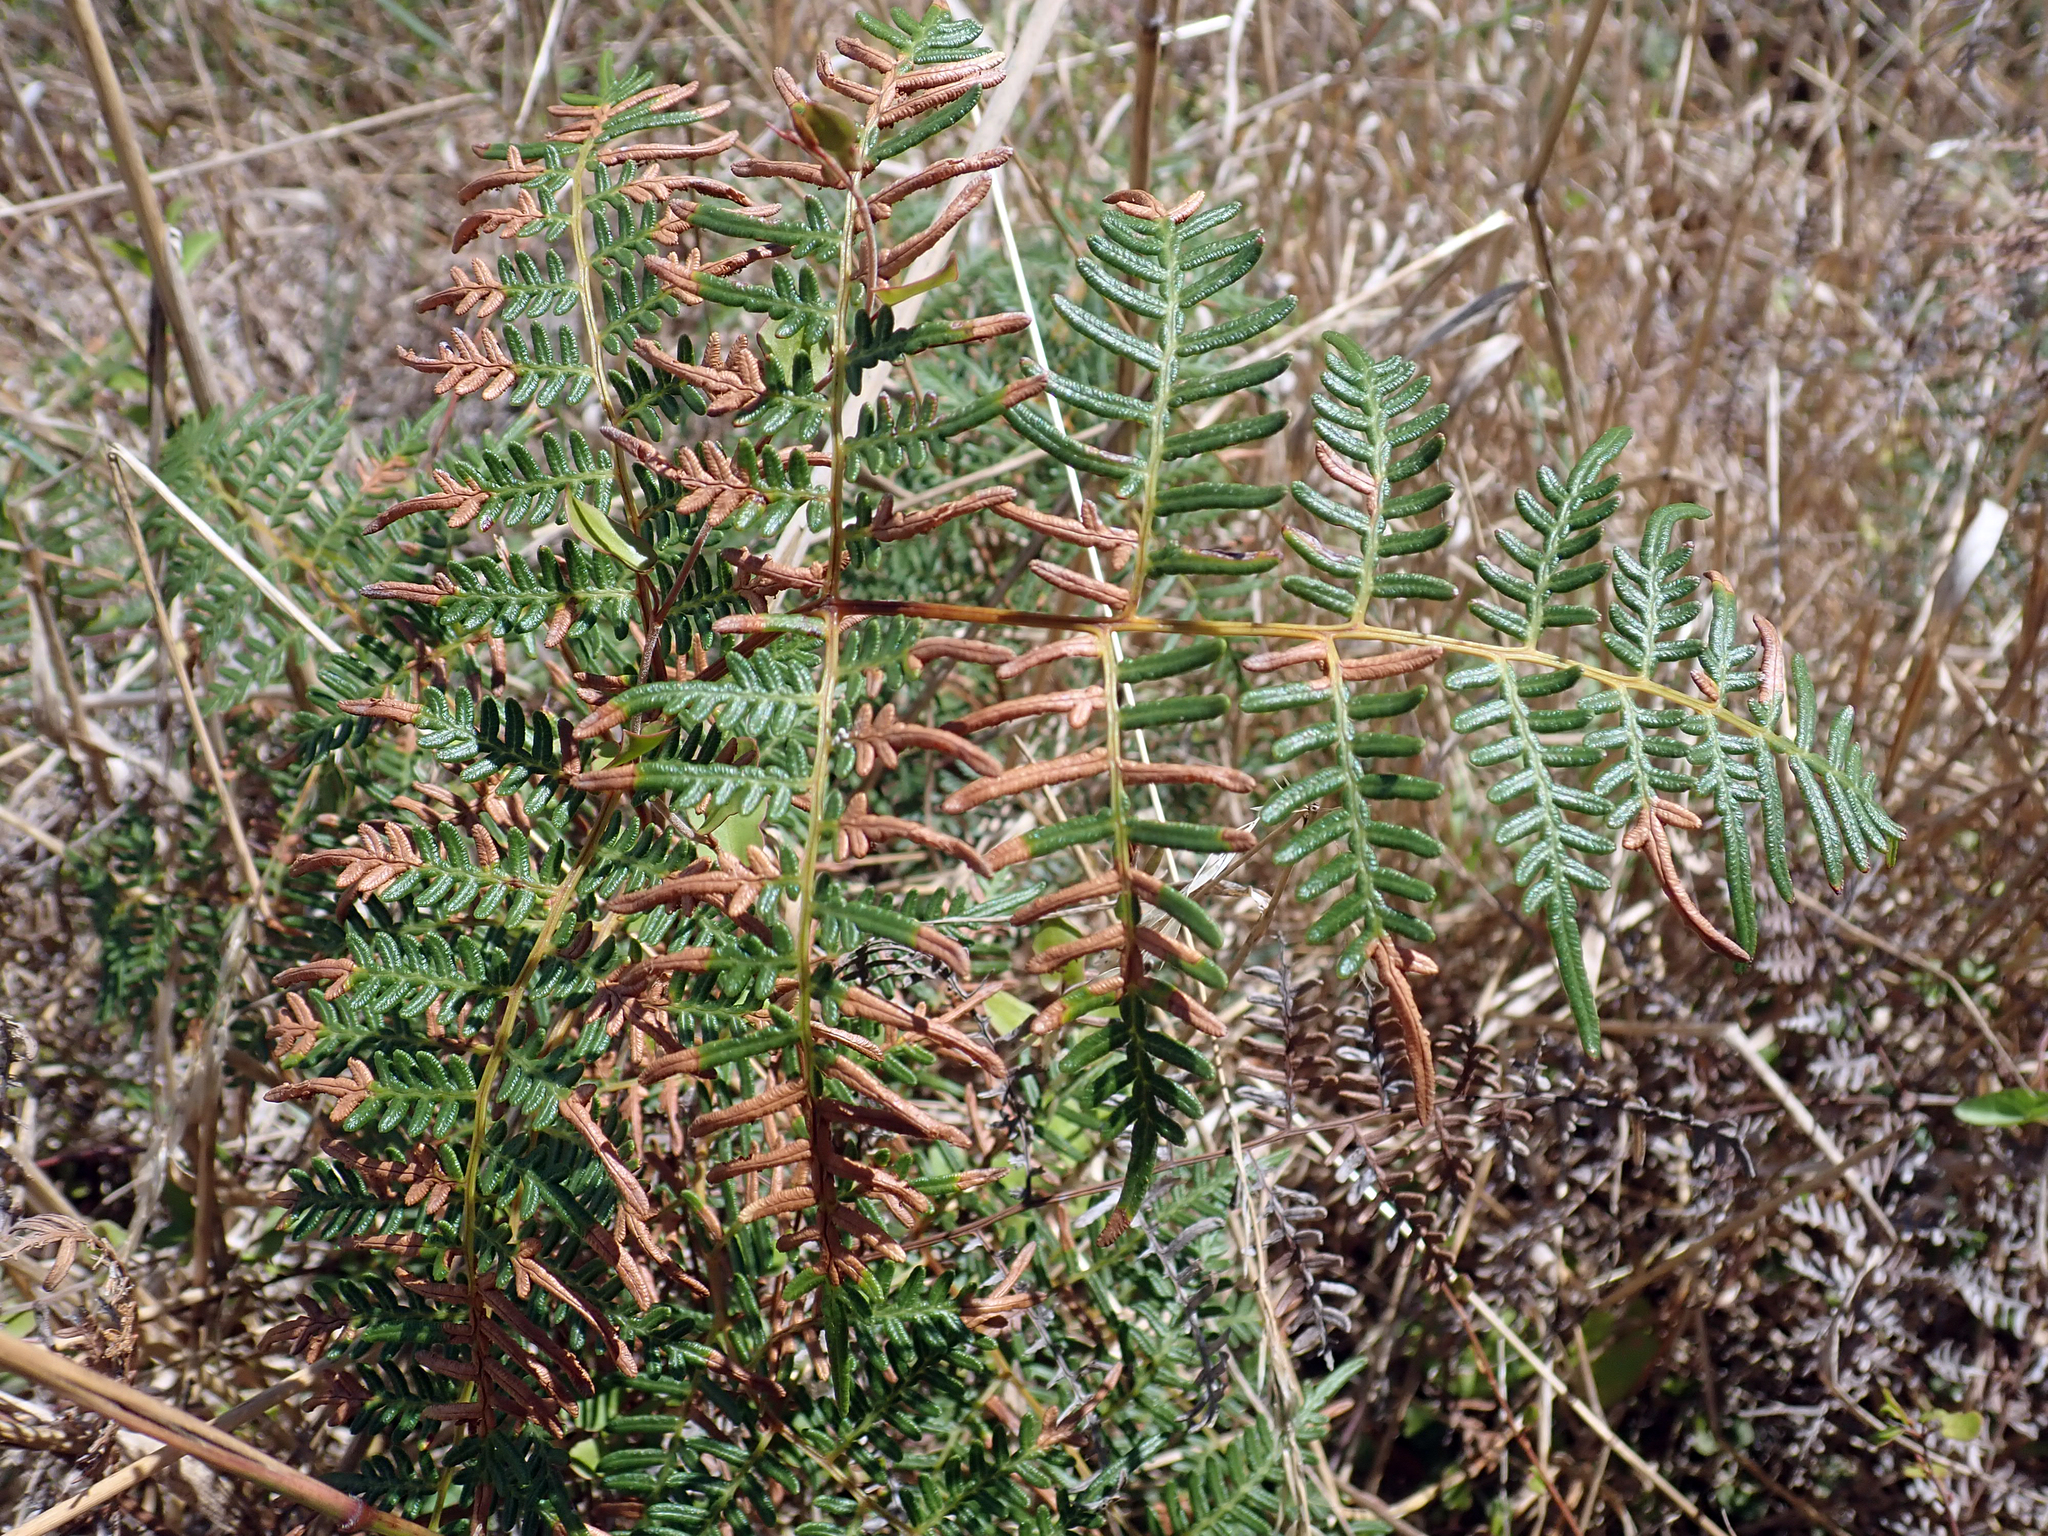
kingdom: Plantae
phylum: Tracheophyta
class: Polypodiopsida
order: Polypodiales
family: Dennstaedtiaceae
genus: Pteridium
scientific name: Pteridium esculentum
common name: Bracken fern
